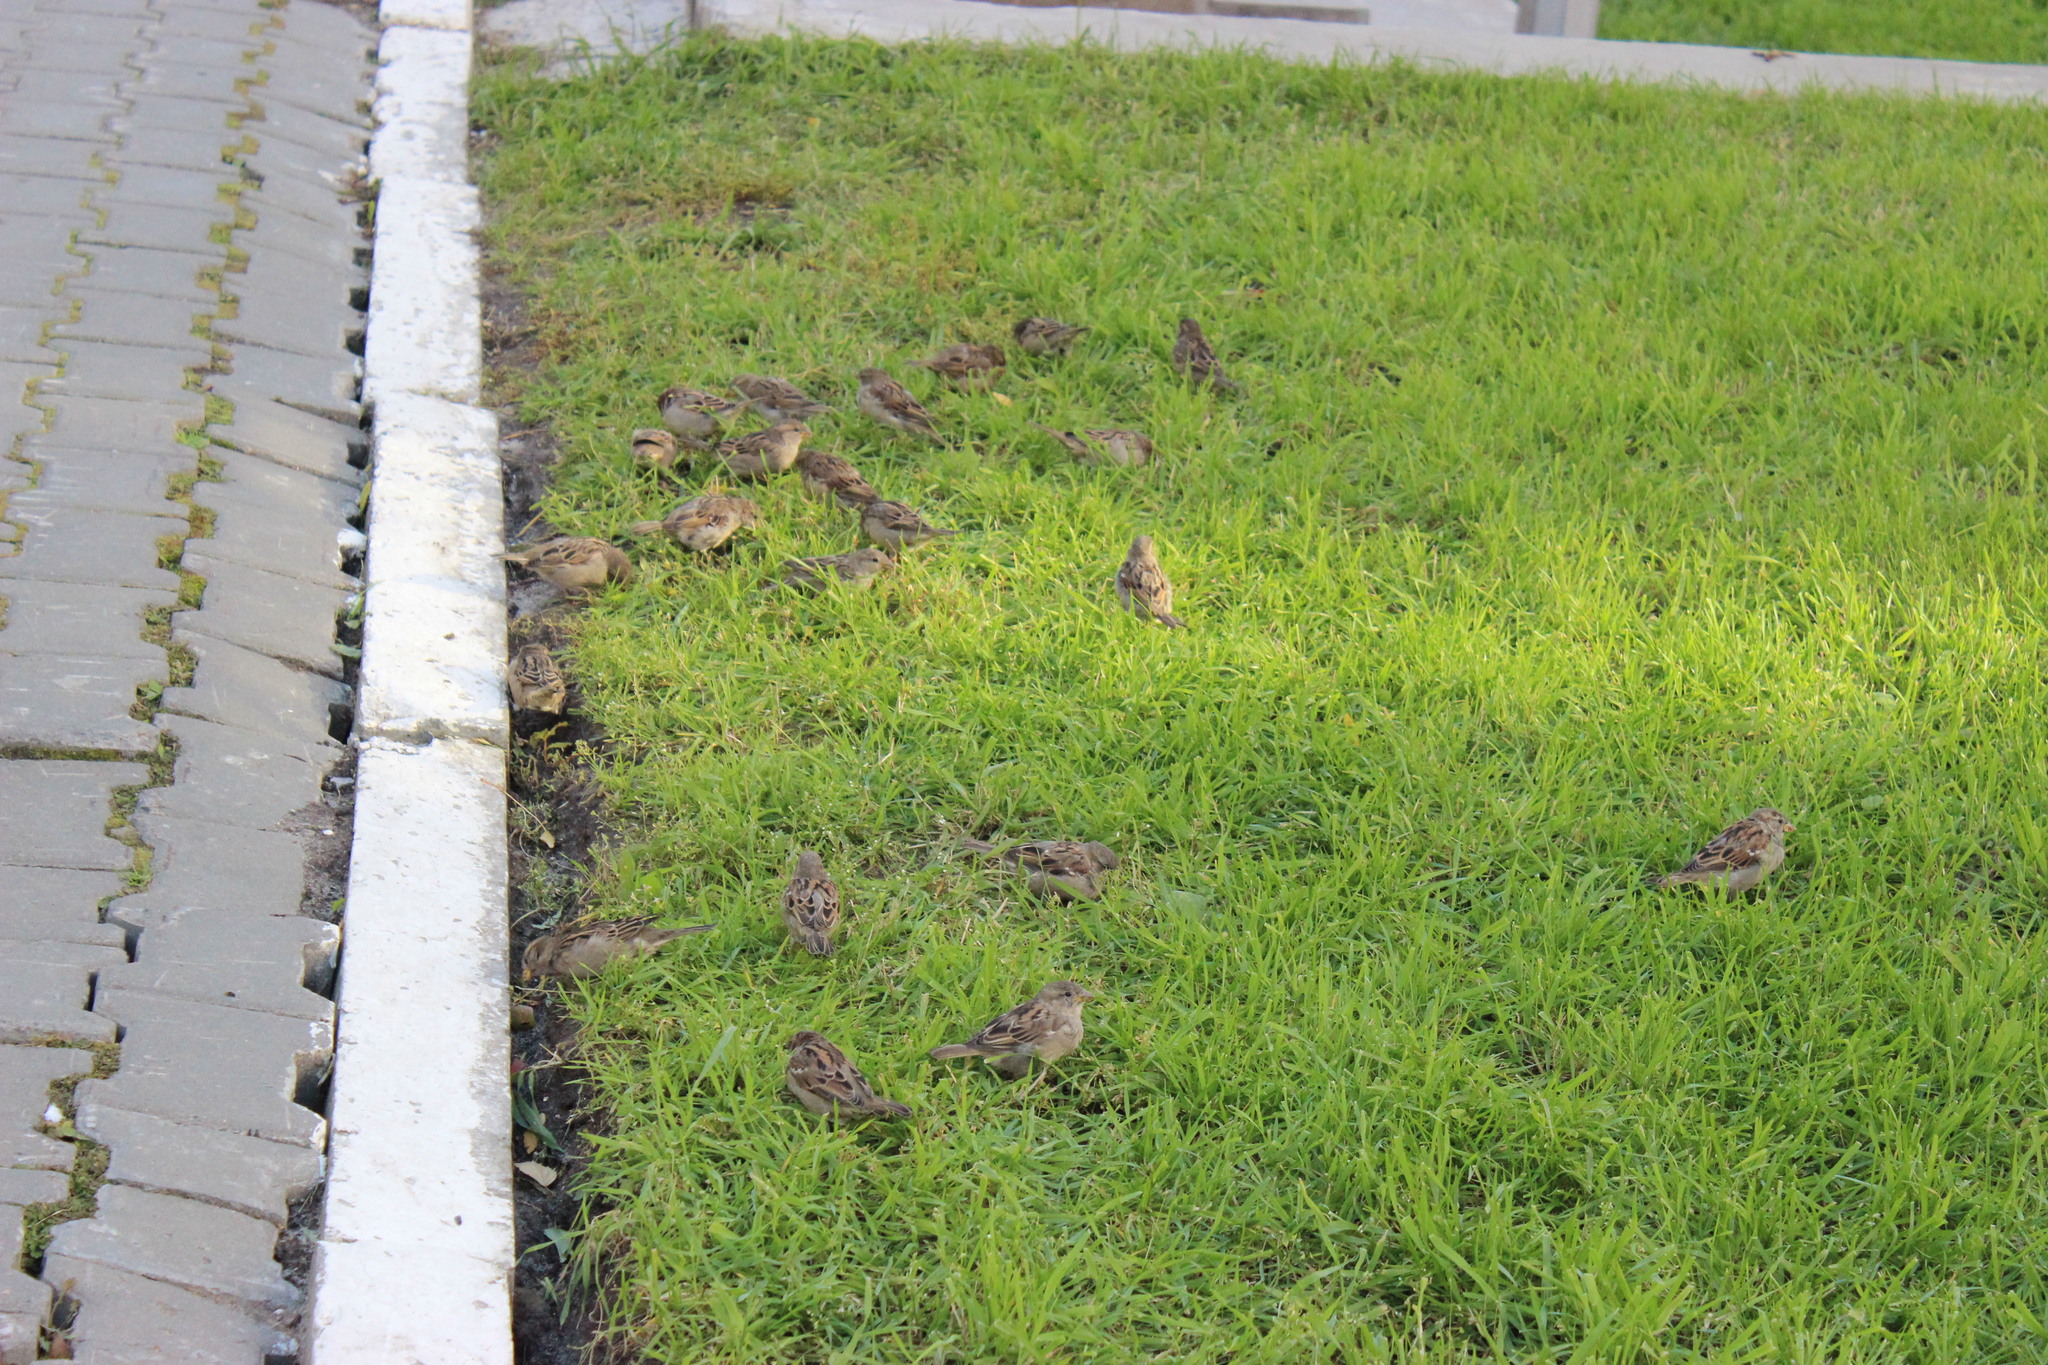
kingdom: Animalia
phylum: Chordata
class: Aves
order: Passeriformes
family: Passeridae
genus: Passer
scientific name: Passer domesticus
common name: House sparrow
